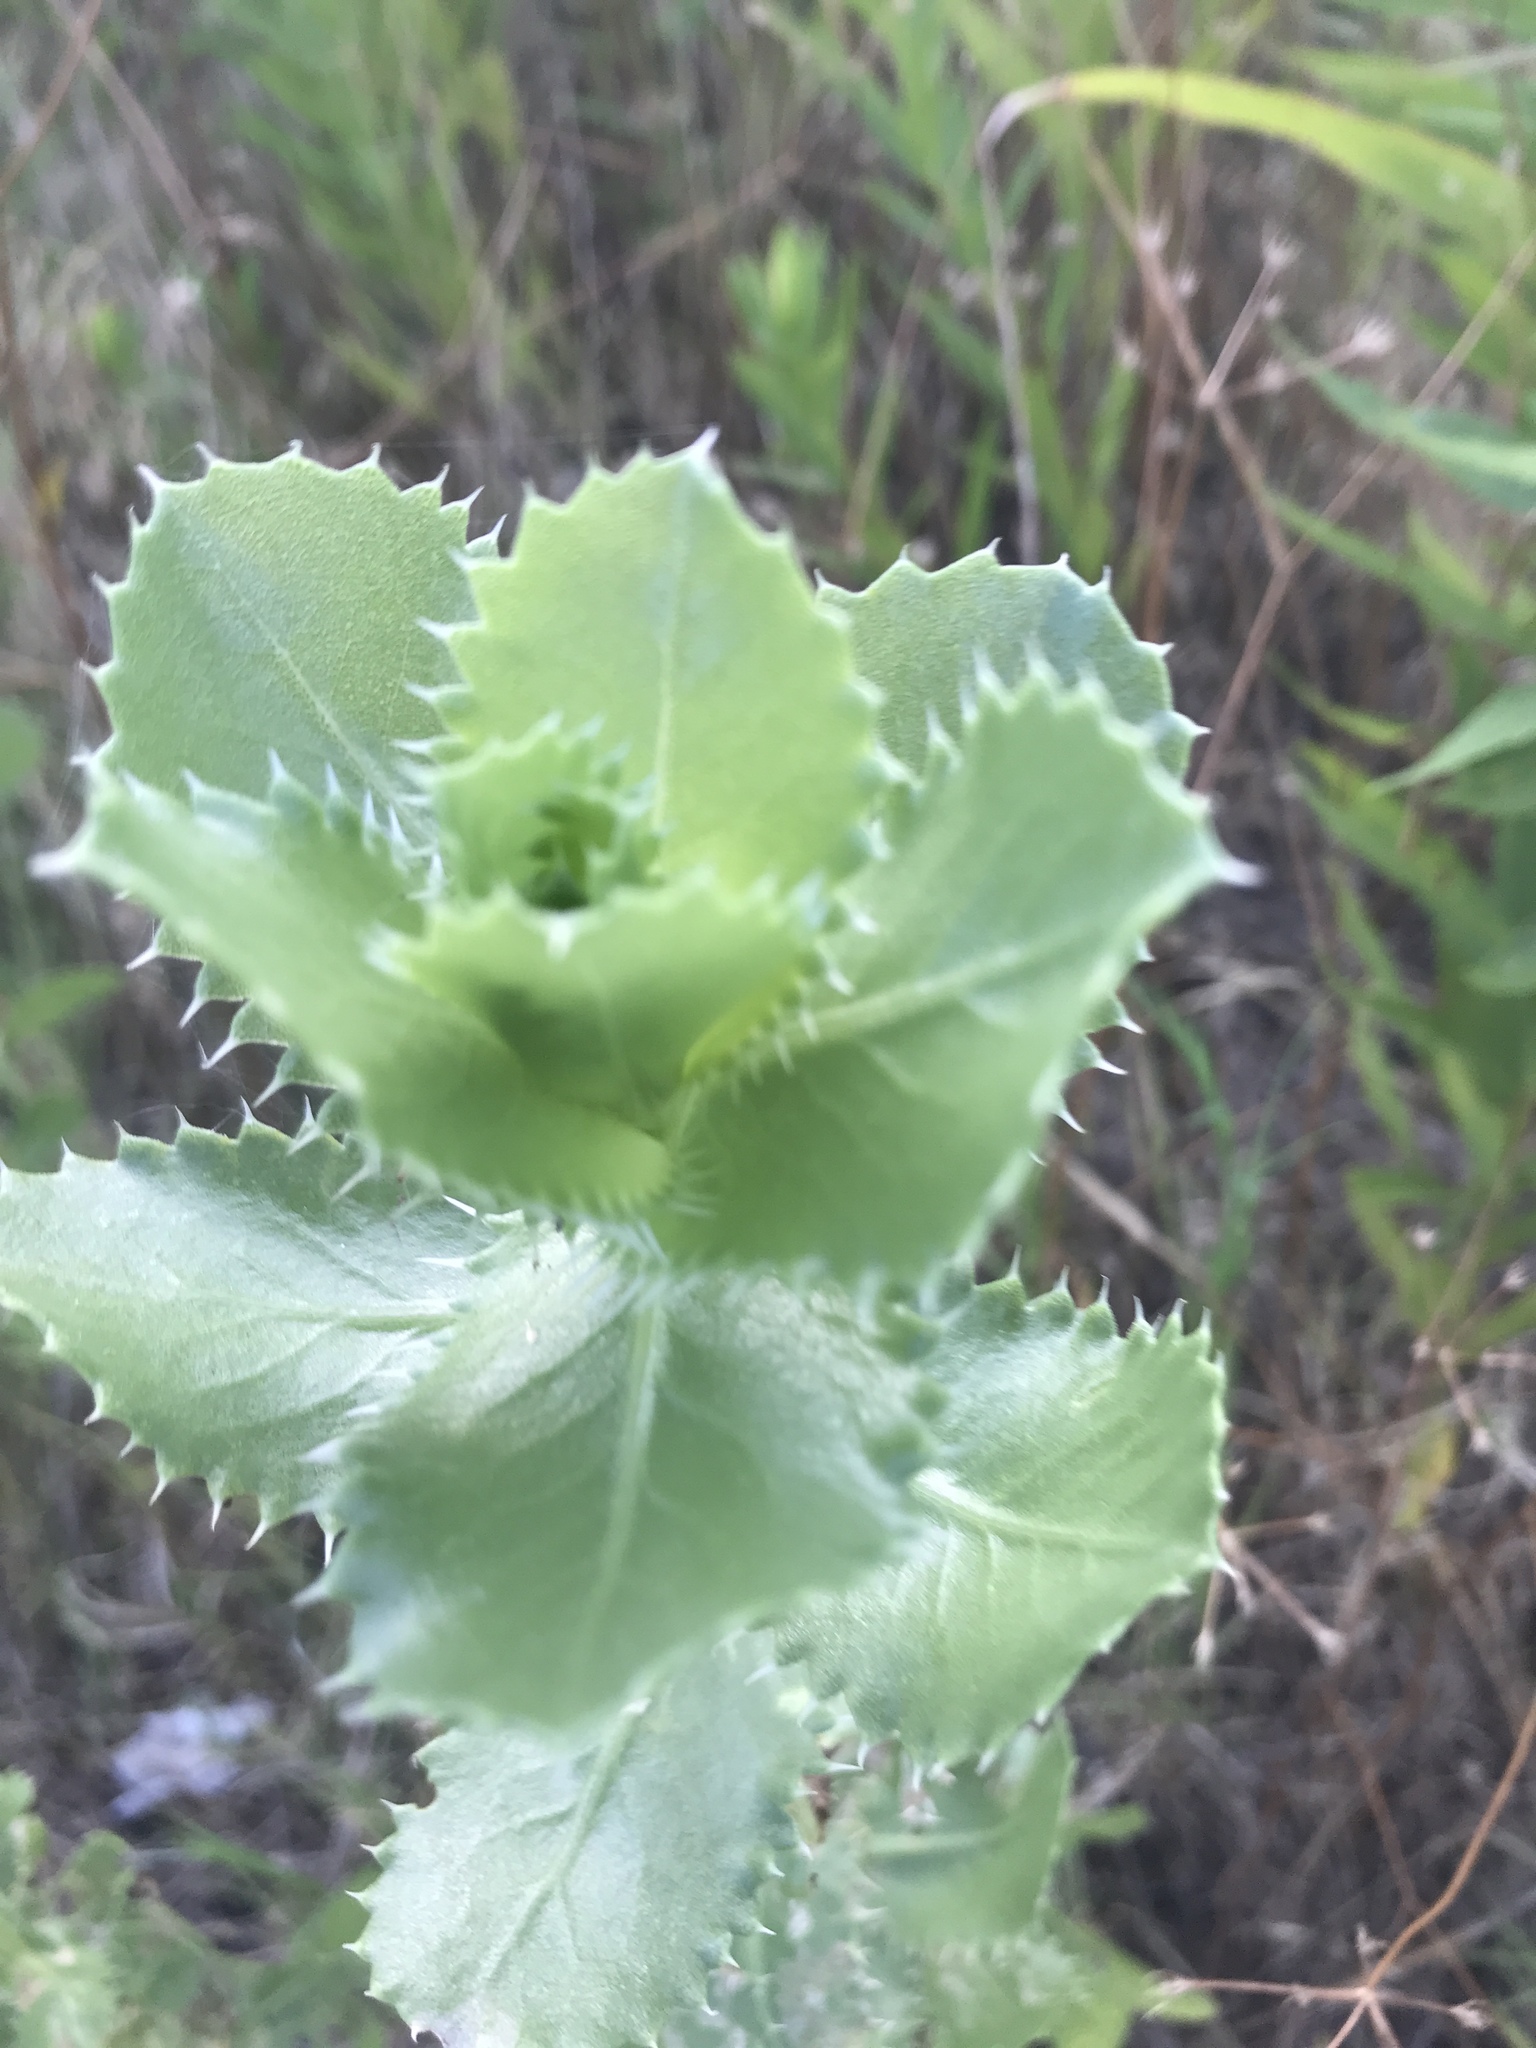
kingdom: Plantae
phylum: Tracheophyta
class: Magnoliopsida
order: Asterales
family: Asteraceae
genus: Grindelia
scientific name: Grindelia ciliata
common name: Goldenweed
